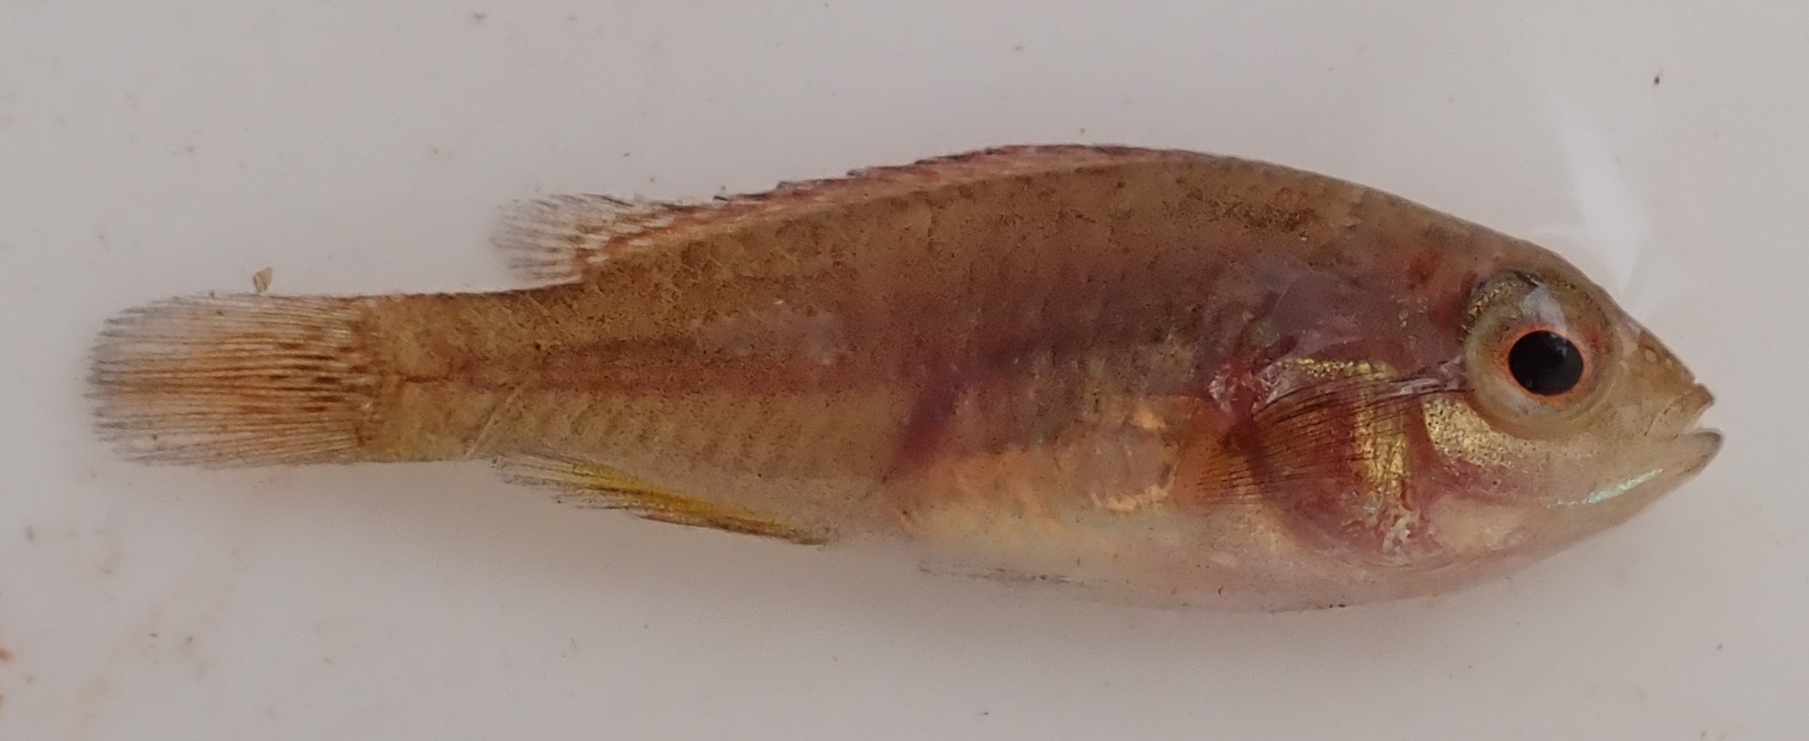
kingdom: Animalia
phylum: Chordata
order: Perciformes
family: Cichlidae
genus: Pseudocrenilabrus
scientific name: Pseudocrenilabrus philander
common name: Southern mouthbrooder
